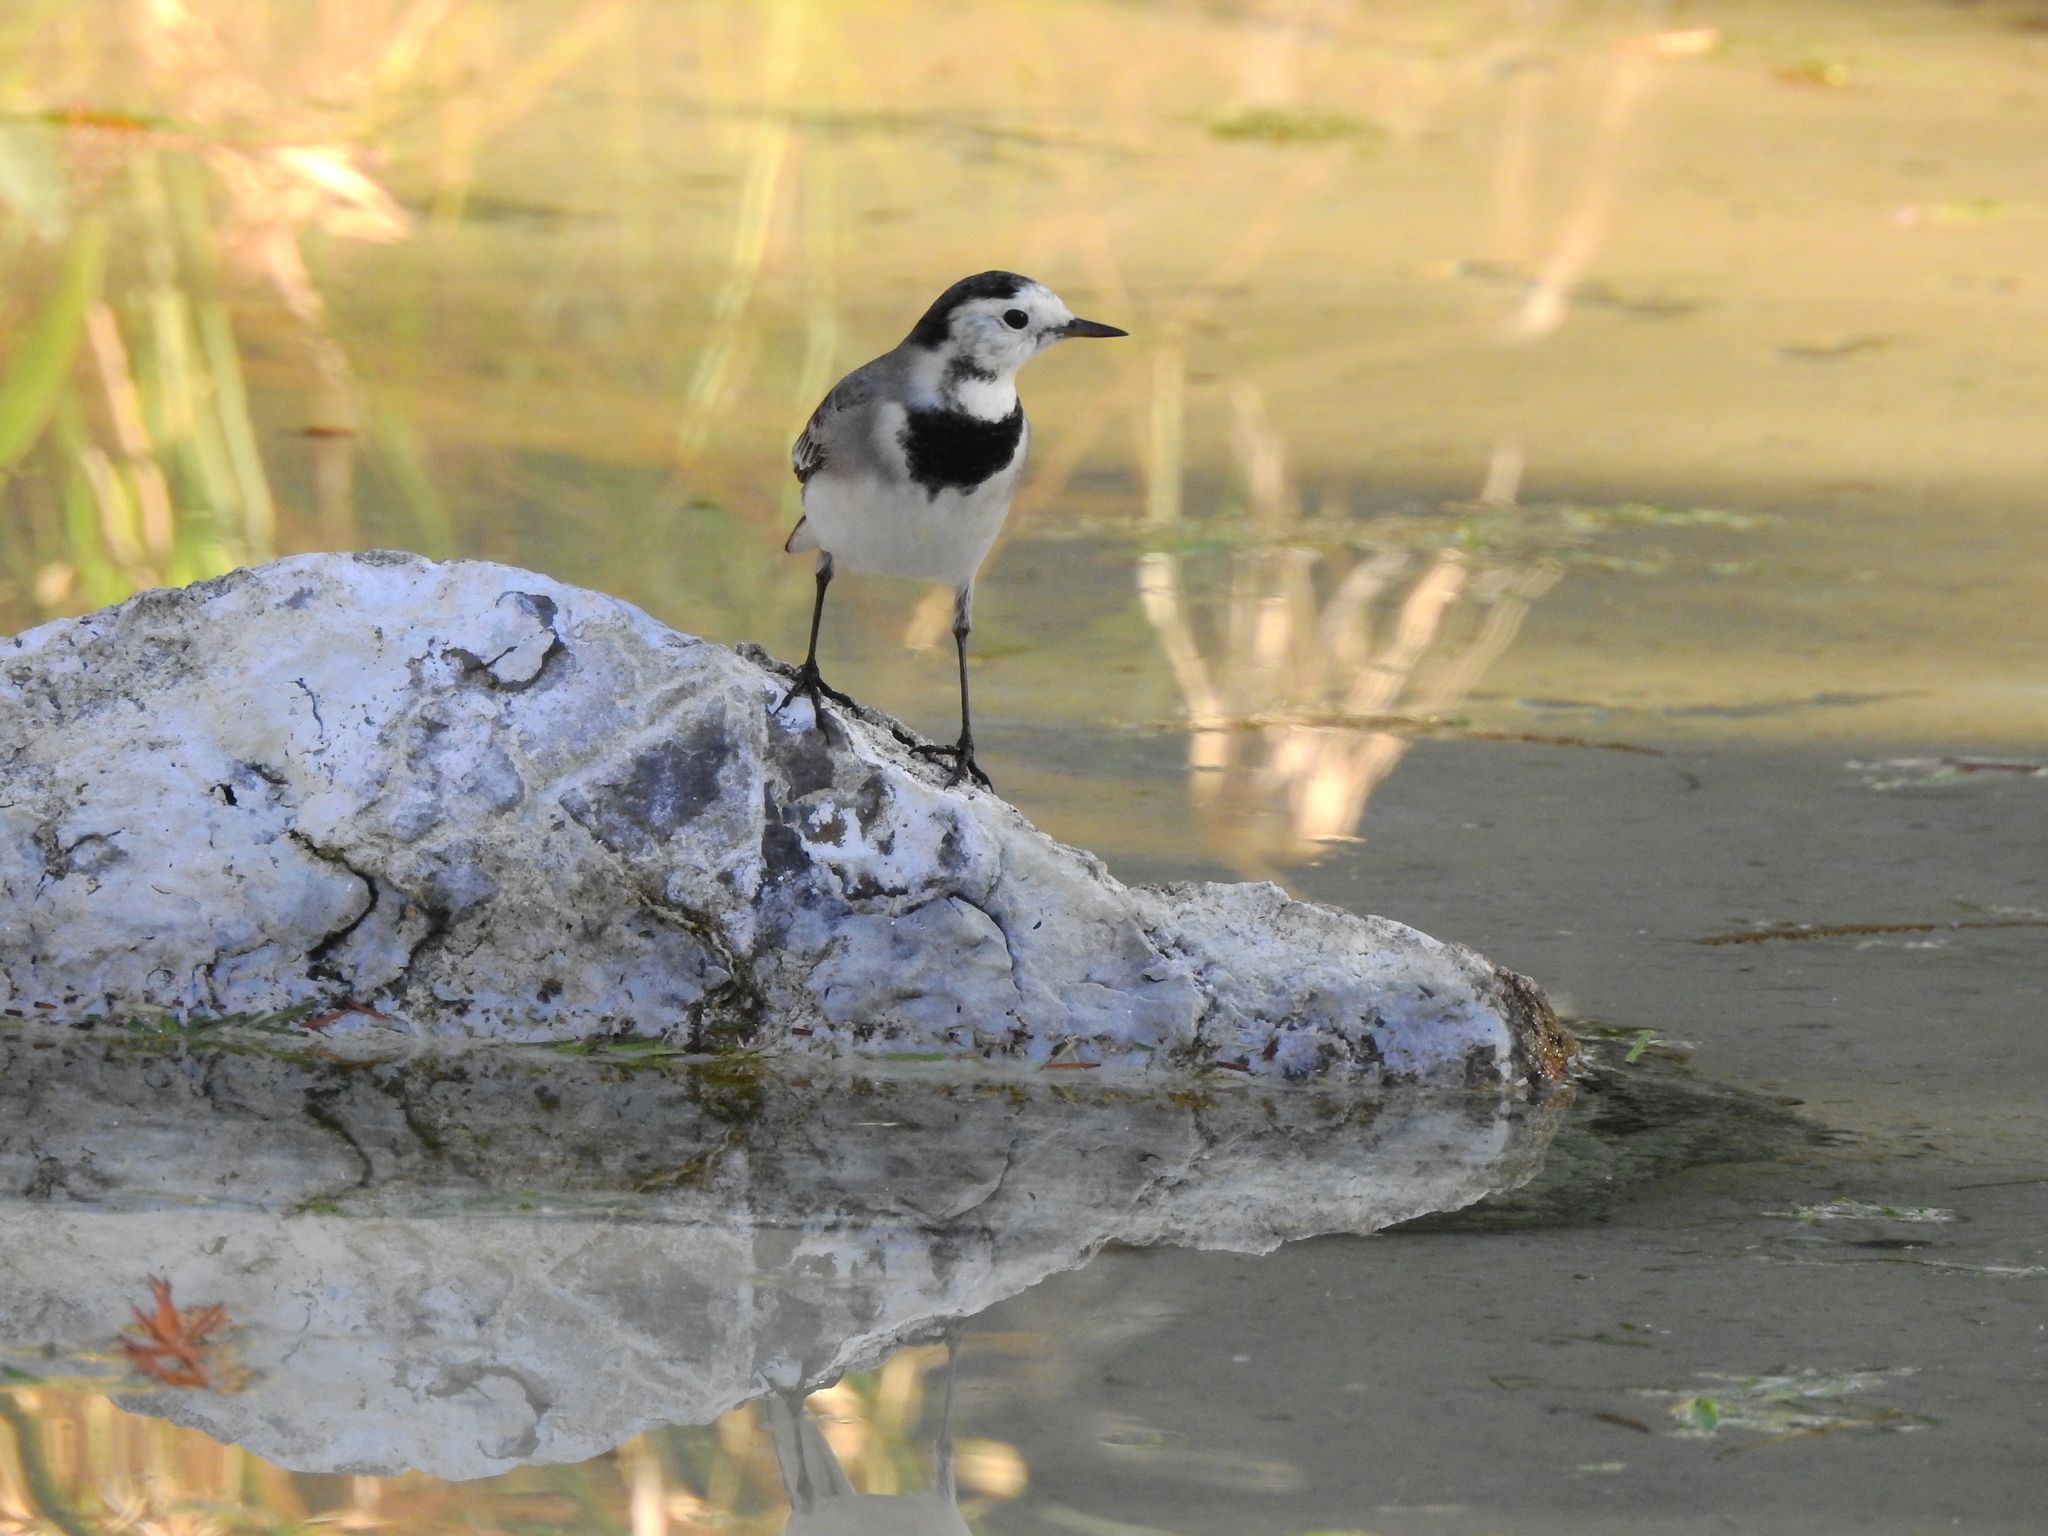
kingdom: Animalia
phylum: Chordata
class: Aves
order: Passeriformes
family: Motacillidae
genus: Motacilla
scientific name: Motacilla alba
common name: White wagtail
